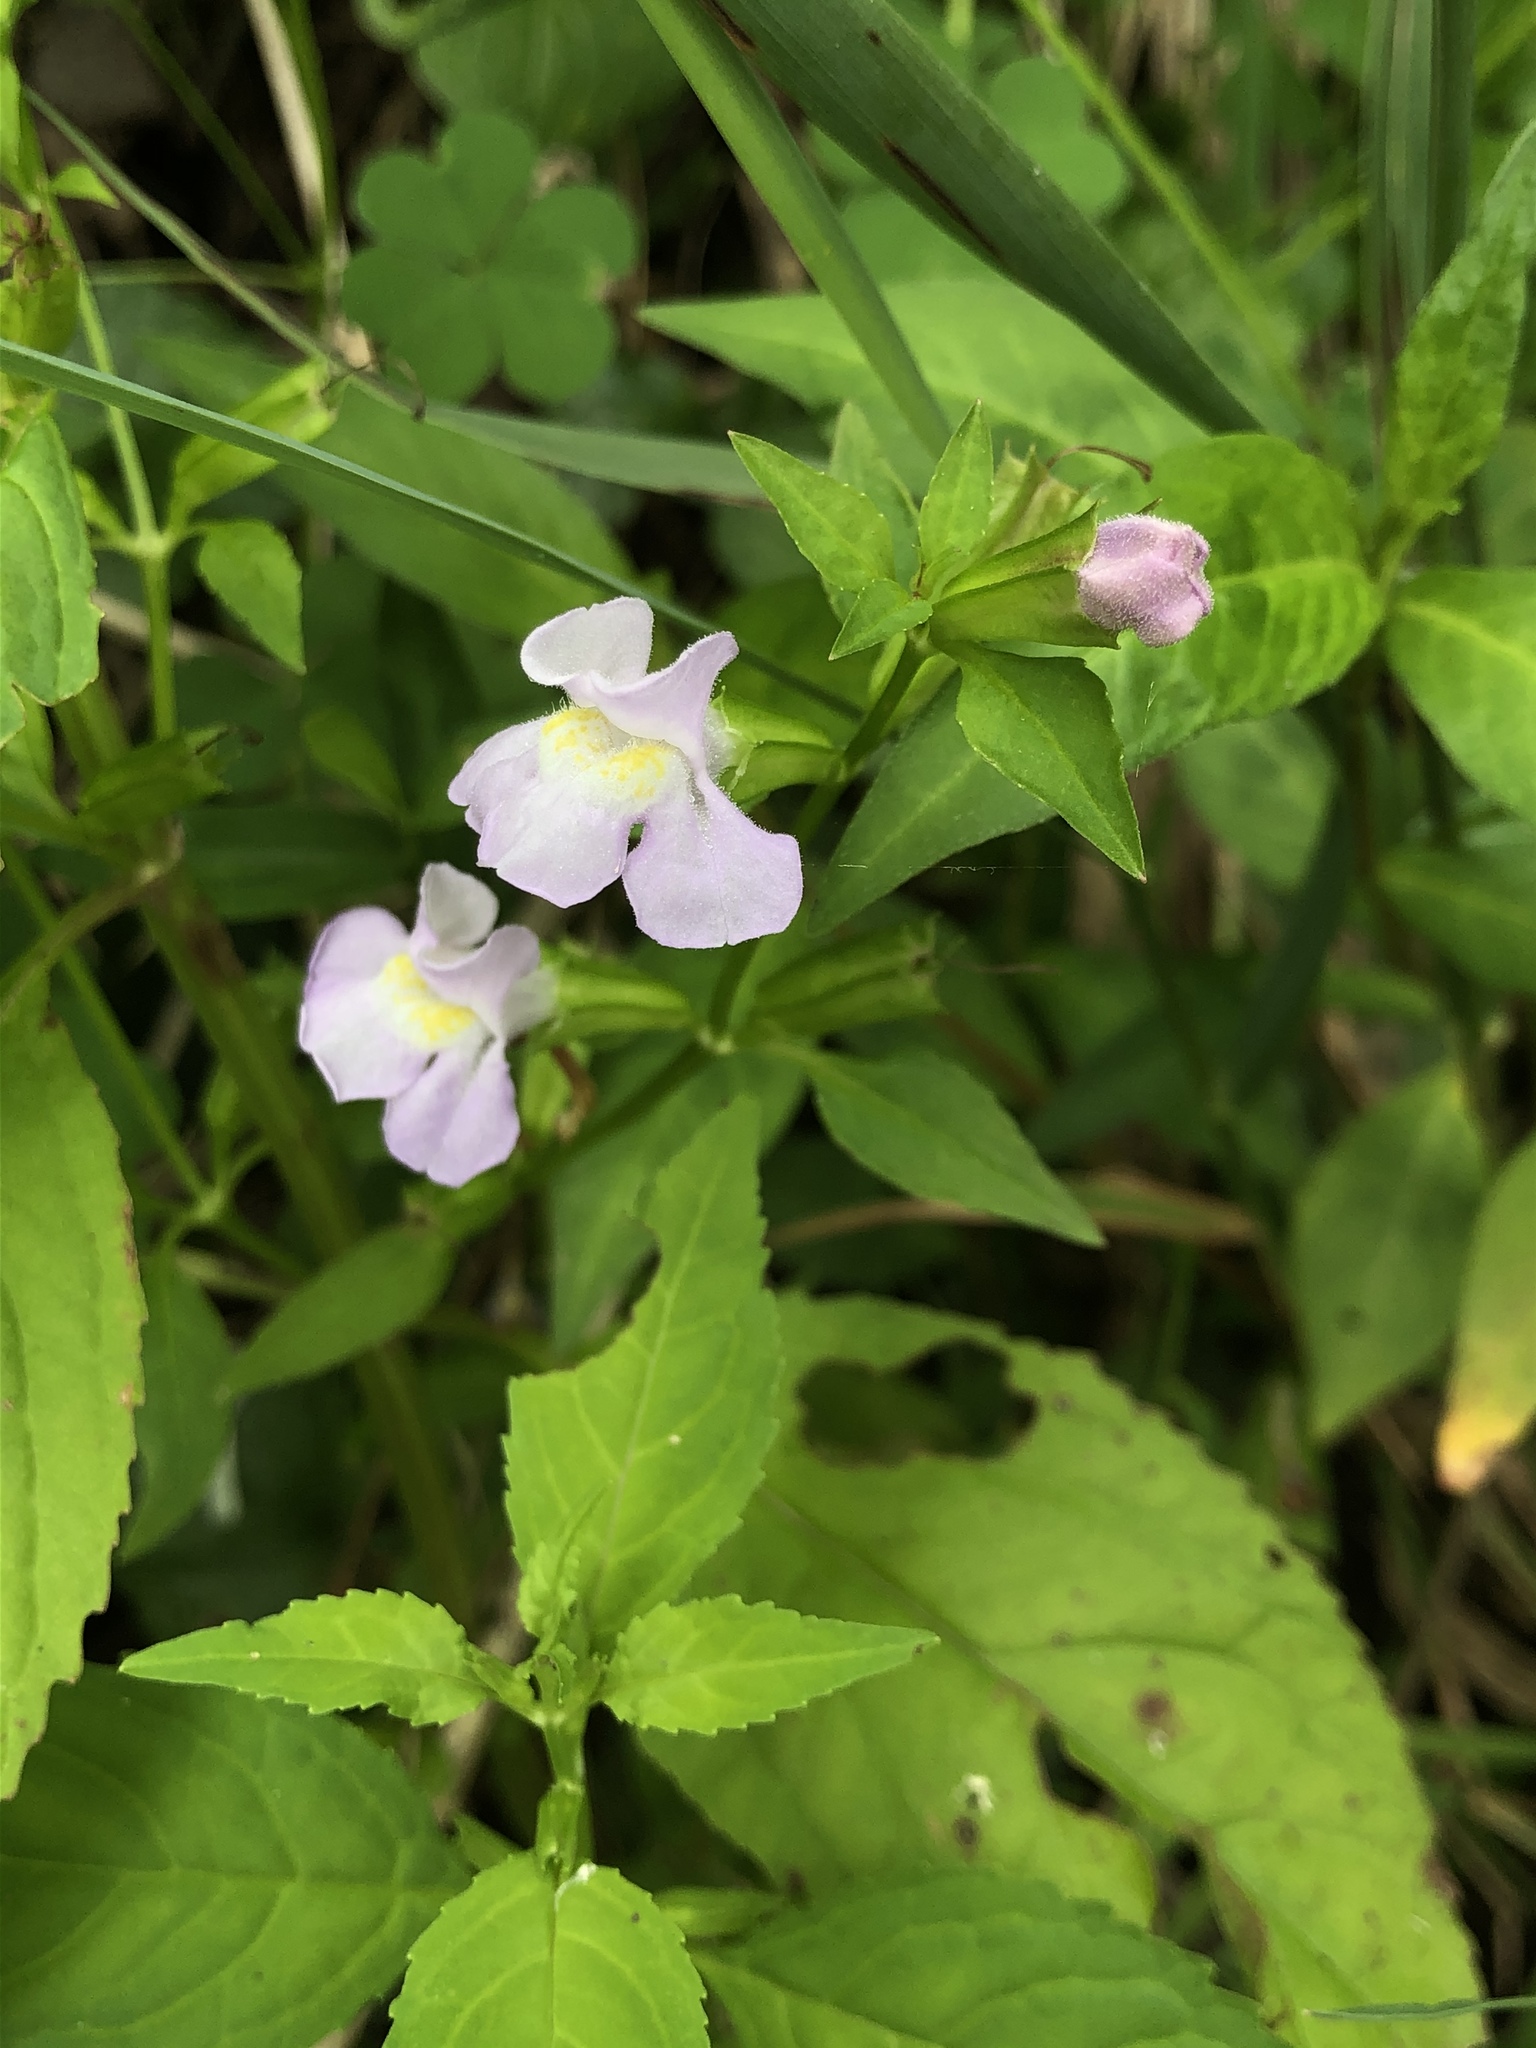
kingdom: Plantae
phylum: Tracheophyta
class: Magnoliopsida
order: Lamiales
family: Phrymaceae
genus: Mimulus
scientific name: Mimulus alatus
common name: Sharp-wing monkey-flower
